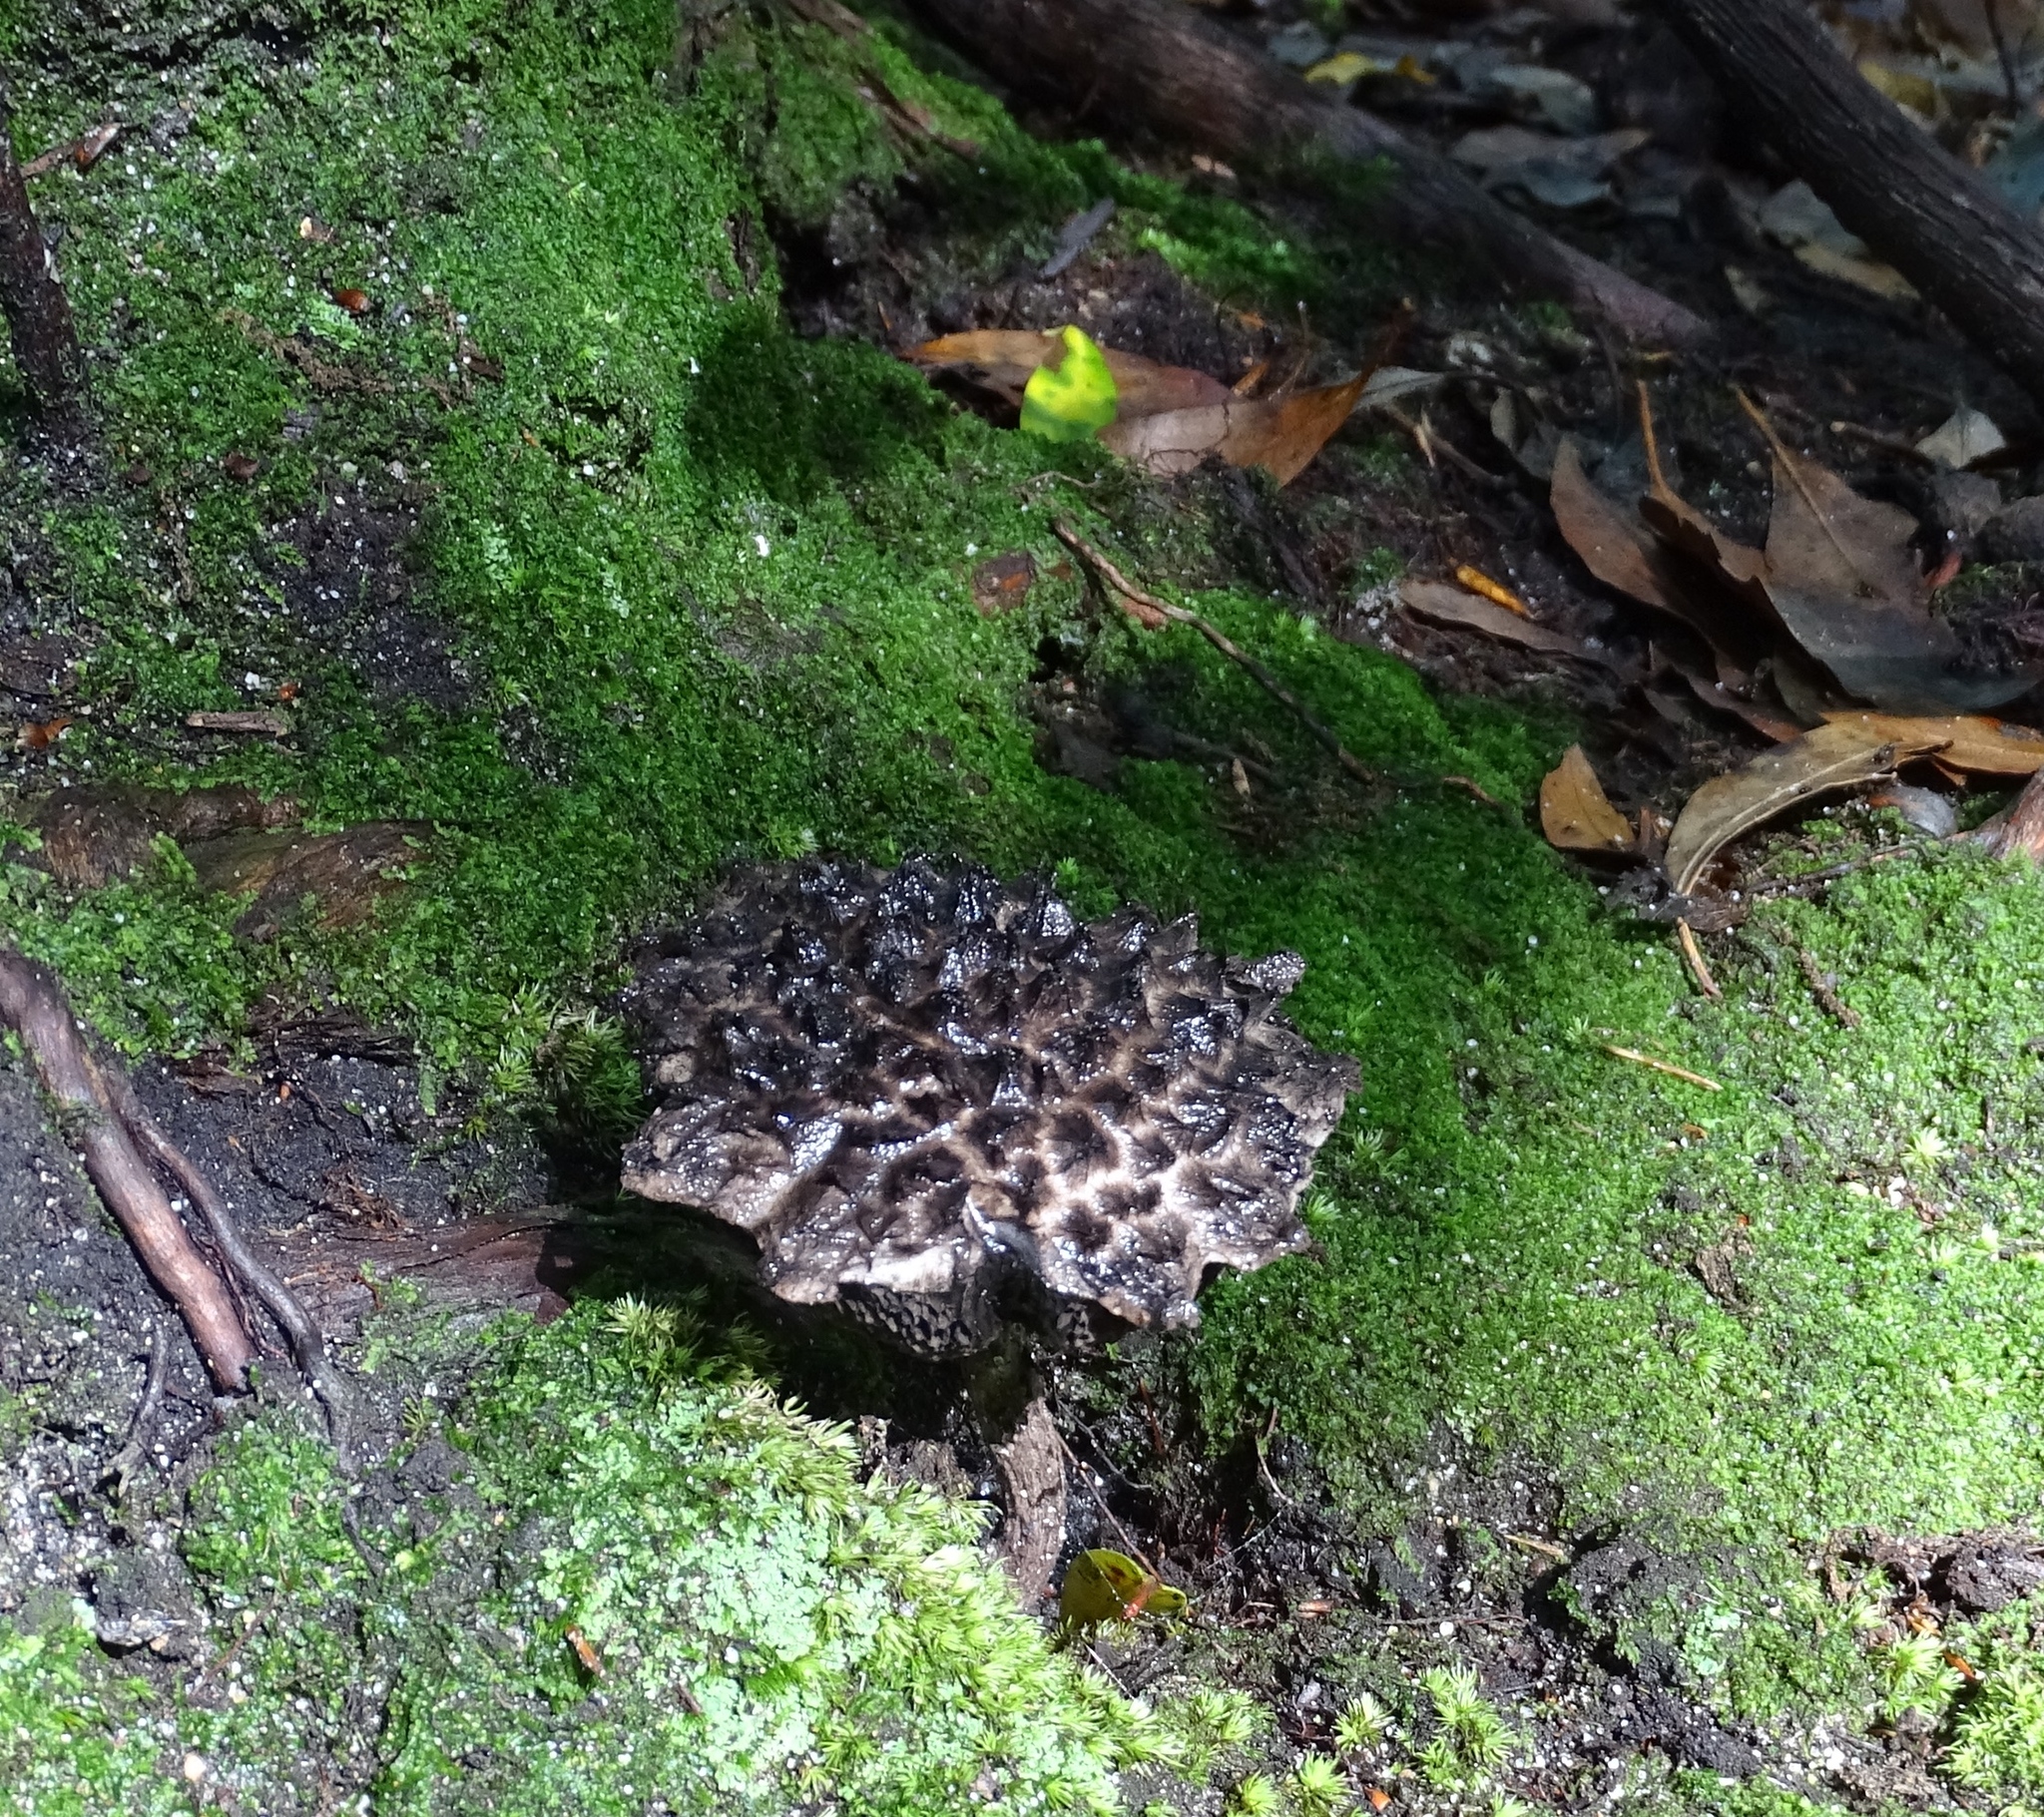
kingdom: Fungi
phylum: Basidiomycota
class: Agaricomycetes
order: Boletales
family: Boletaceae
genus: Strobilomyces
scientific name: Strobilomyces strobilaceus
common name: Old man of the woods
